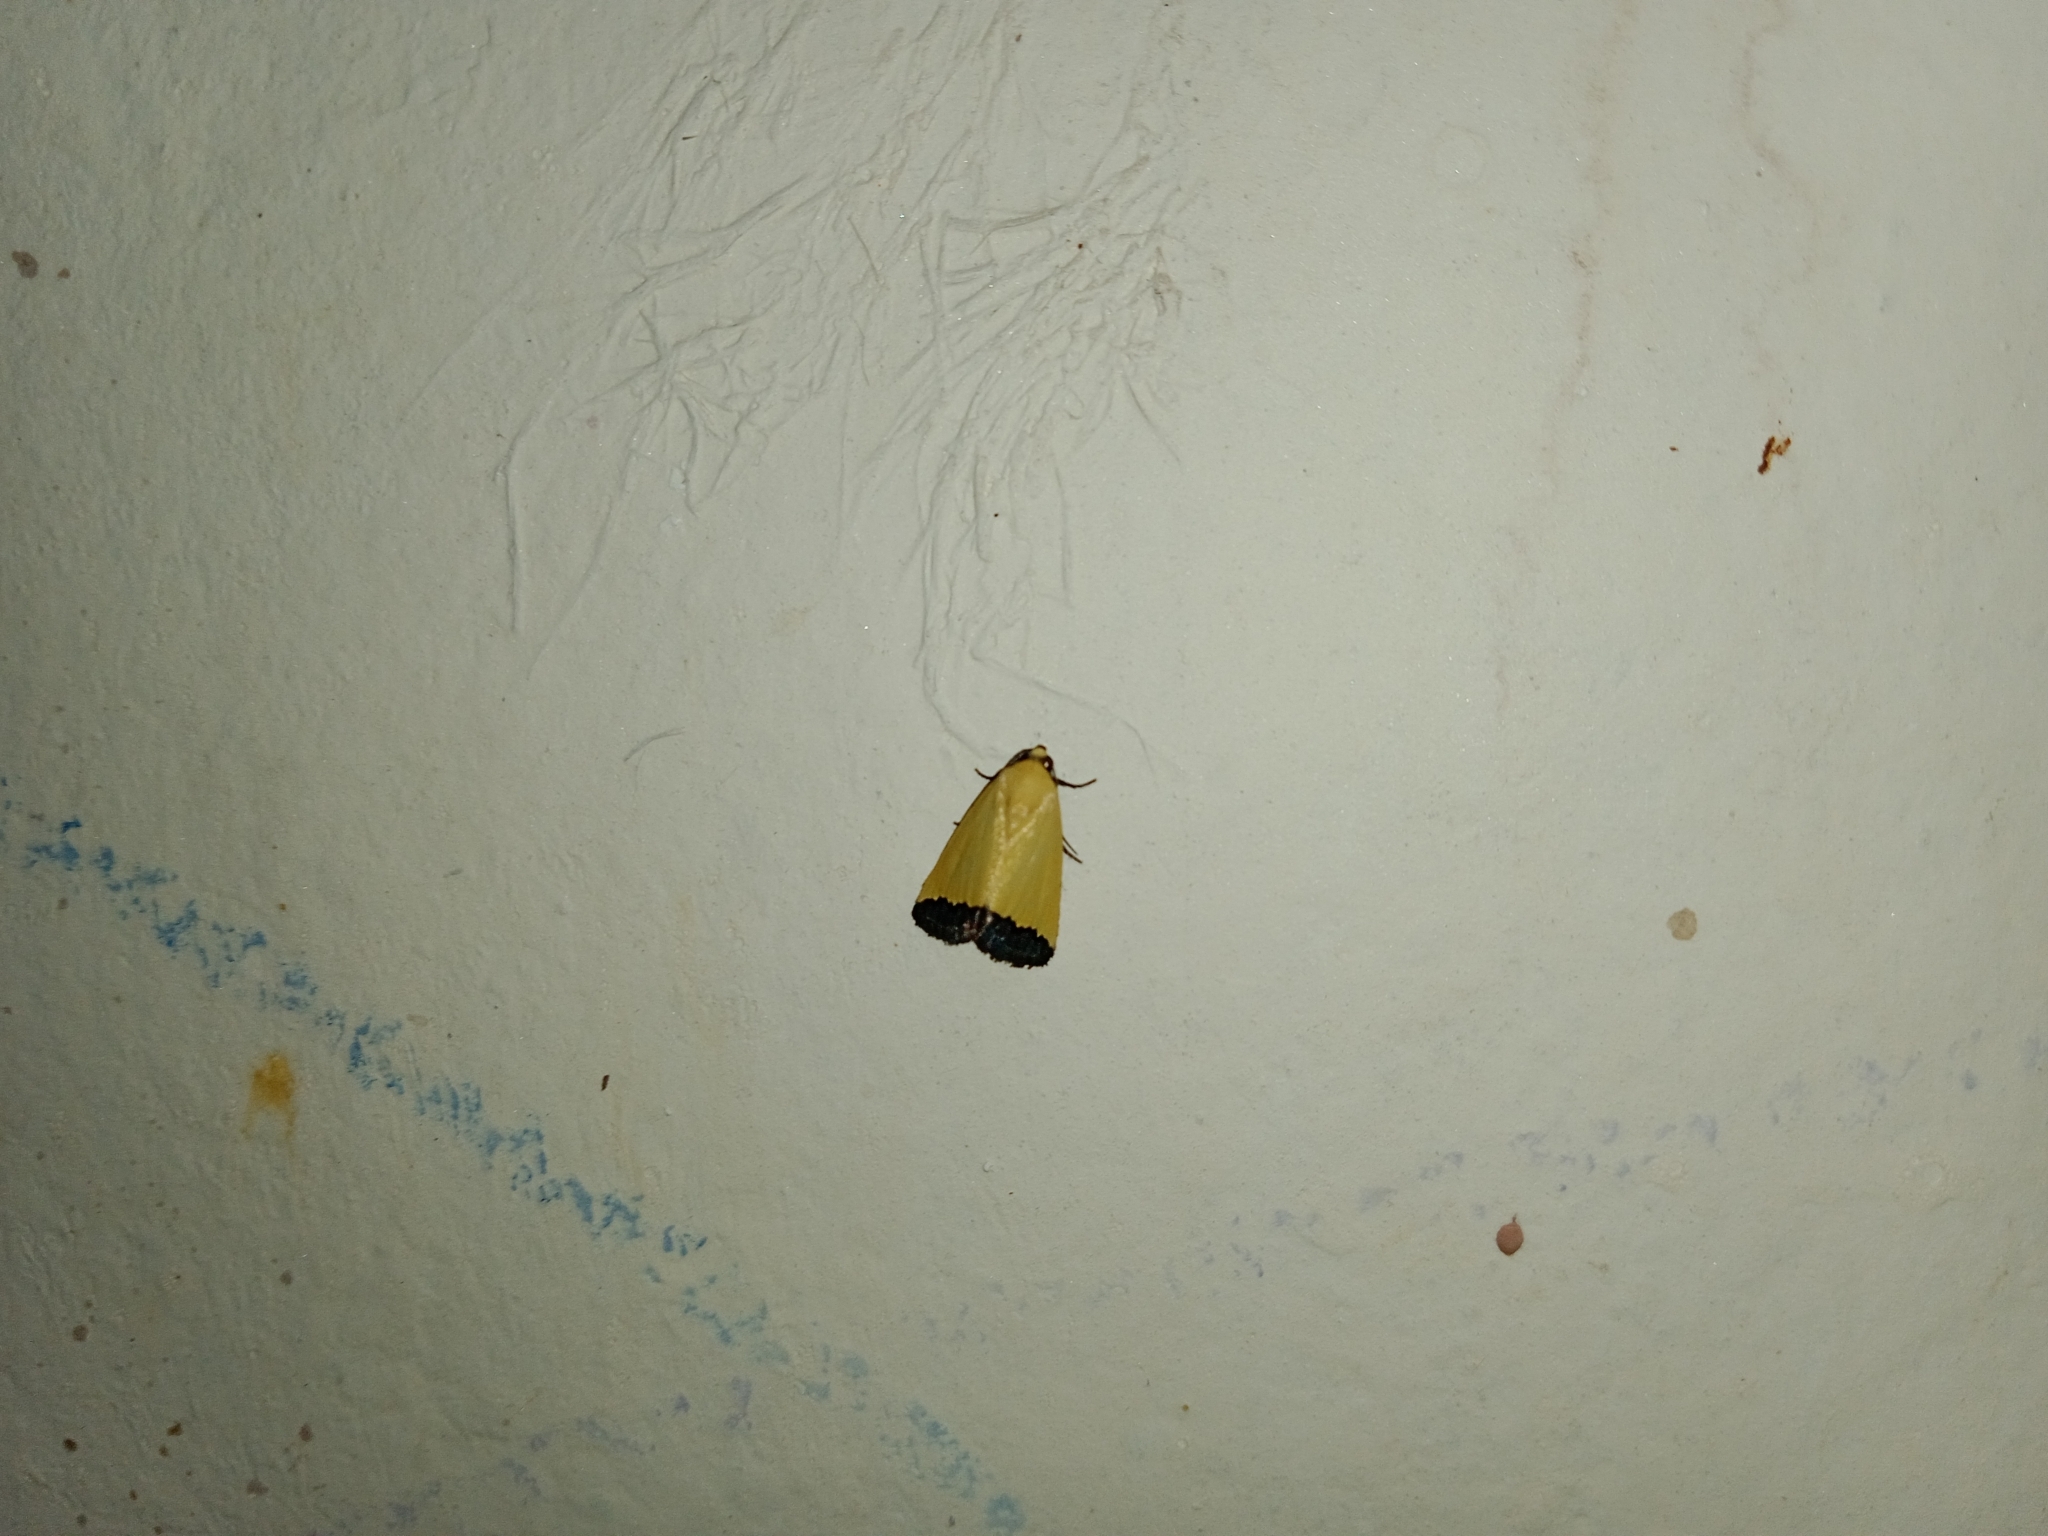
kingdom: Animalia
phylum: Arthropoda
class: Insecta
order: Lepidoptera
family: Noctuidae
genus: Eustrotia
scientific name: Eustrotia marginata
